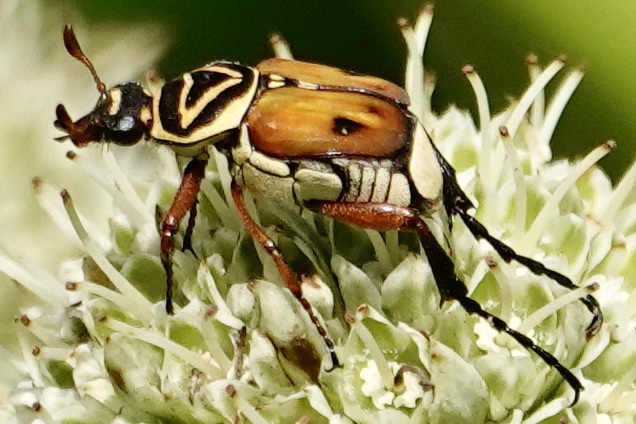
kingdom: Animalia
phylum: Arthropoda
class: Insecta
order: Coleoptera
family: Scarabaeidae
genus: Trigonopeltastes
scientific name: Trigonopeltastes delta
